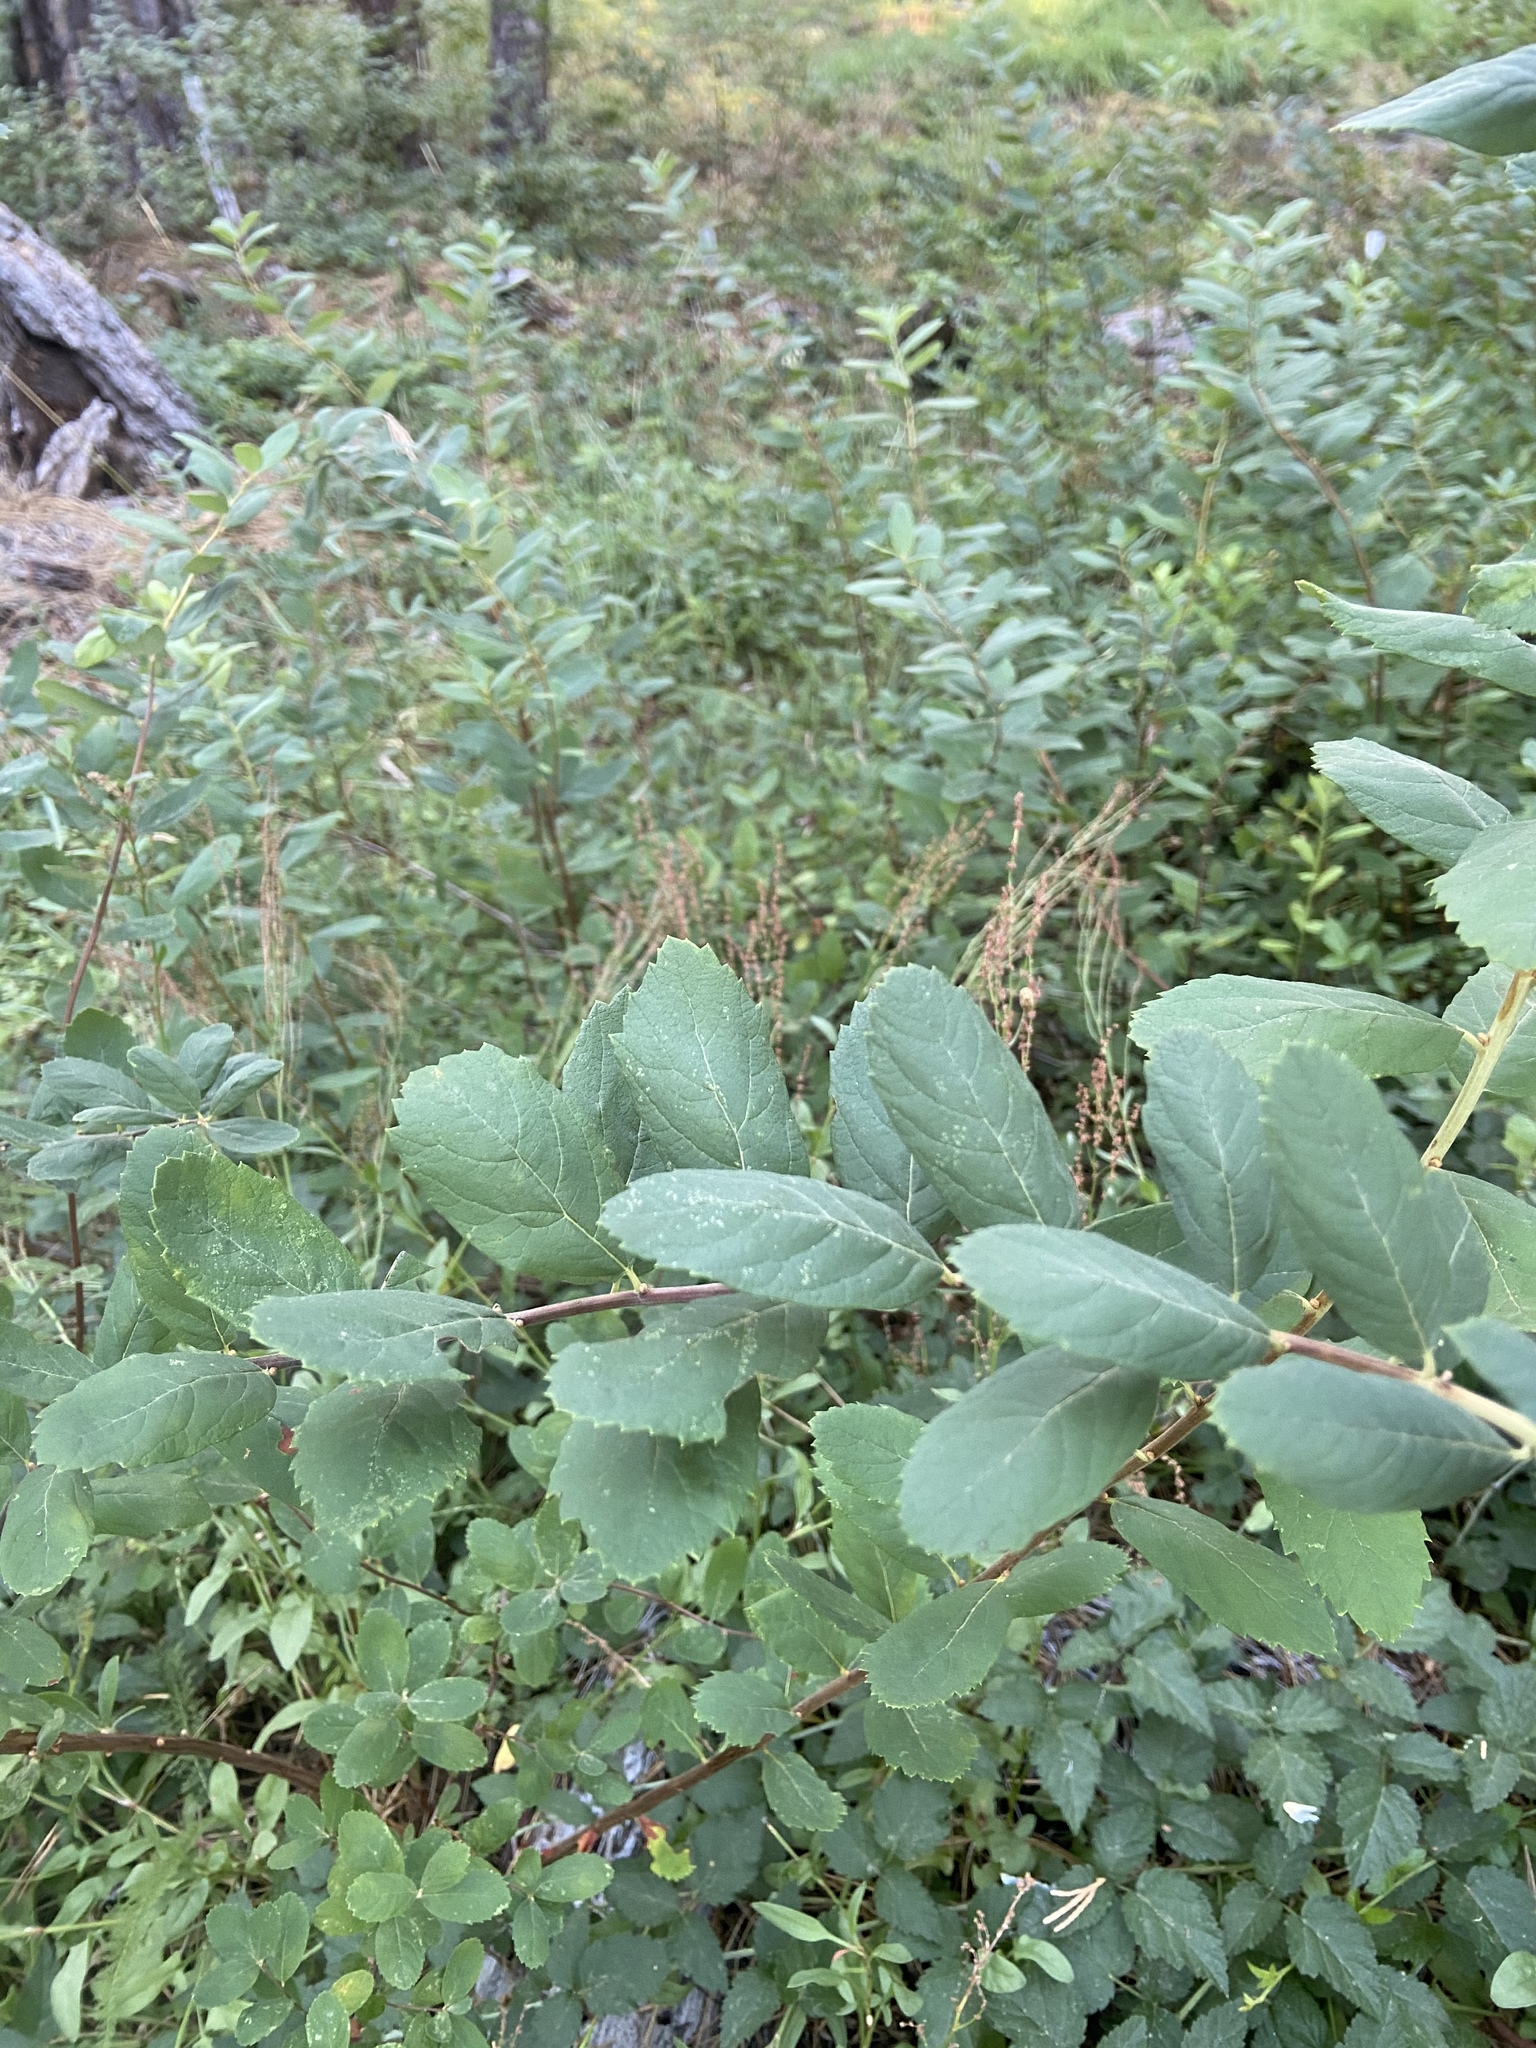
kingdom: Plantae
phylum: Tracheophyta
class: Magnoliopsida
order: Rosales
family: Rosaceae
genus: Spiraea
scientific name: Spiraea douglasii
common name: Steeplebush
